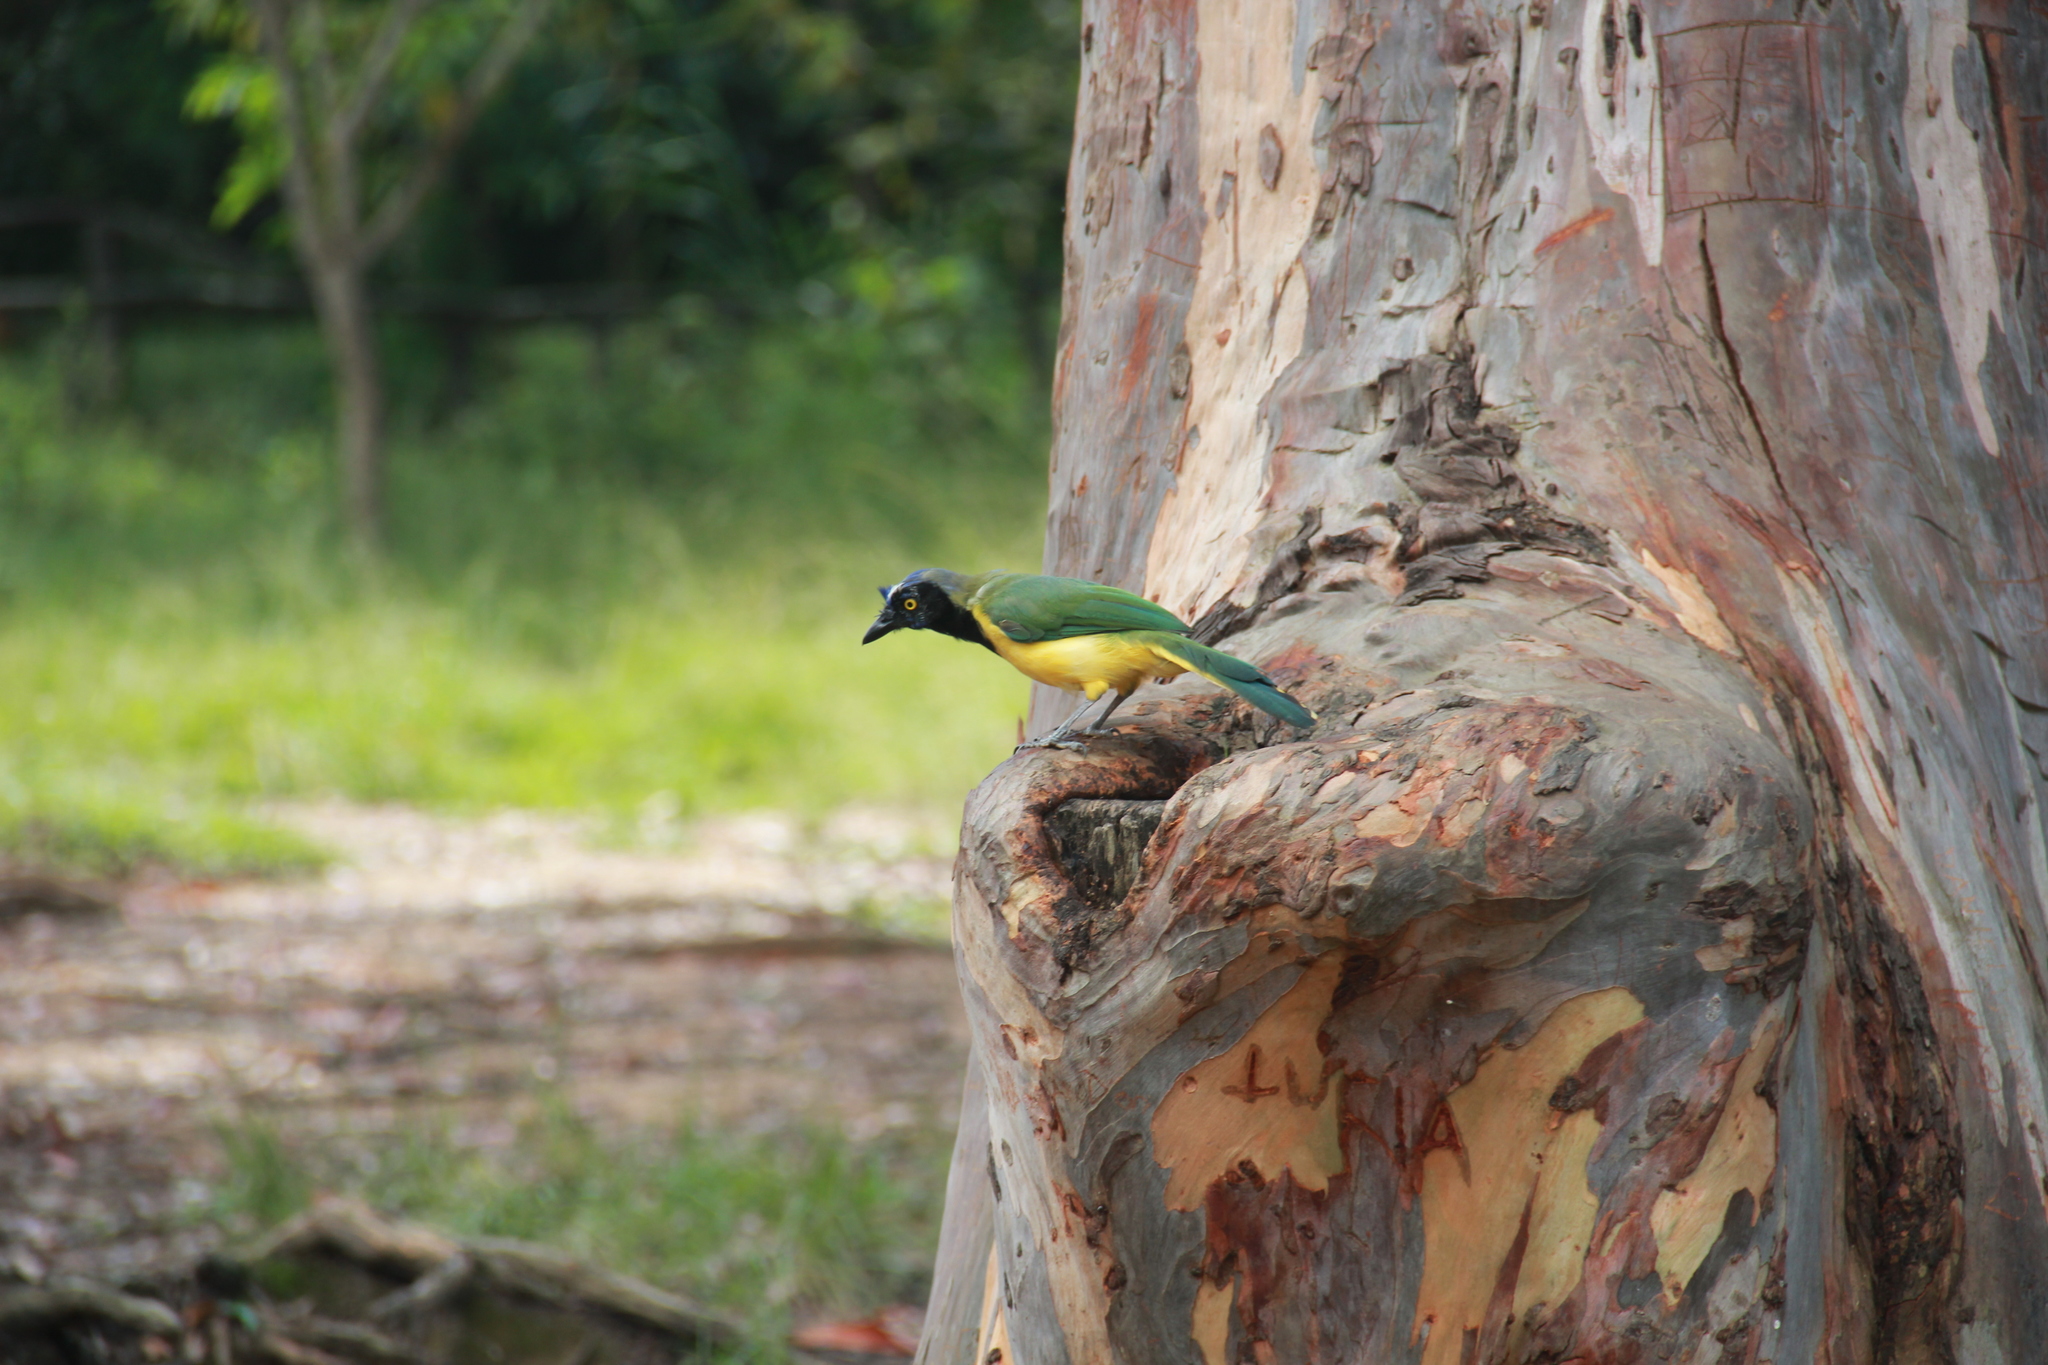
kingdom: Plantae
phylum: Tracheophyta
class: Magnoliopsida
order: Myrtales
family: Myrtaceae
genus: Eucalyptus
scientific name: Eucalyptus globulus
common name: Southern blue-gum
